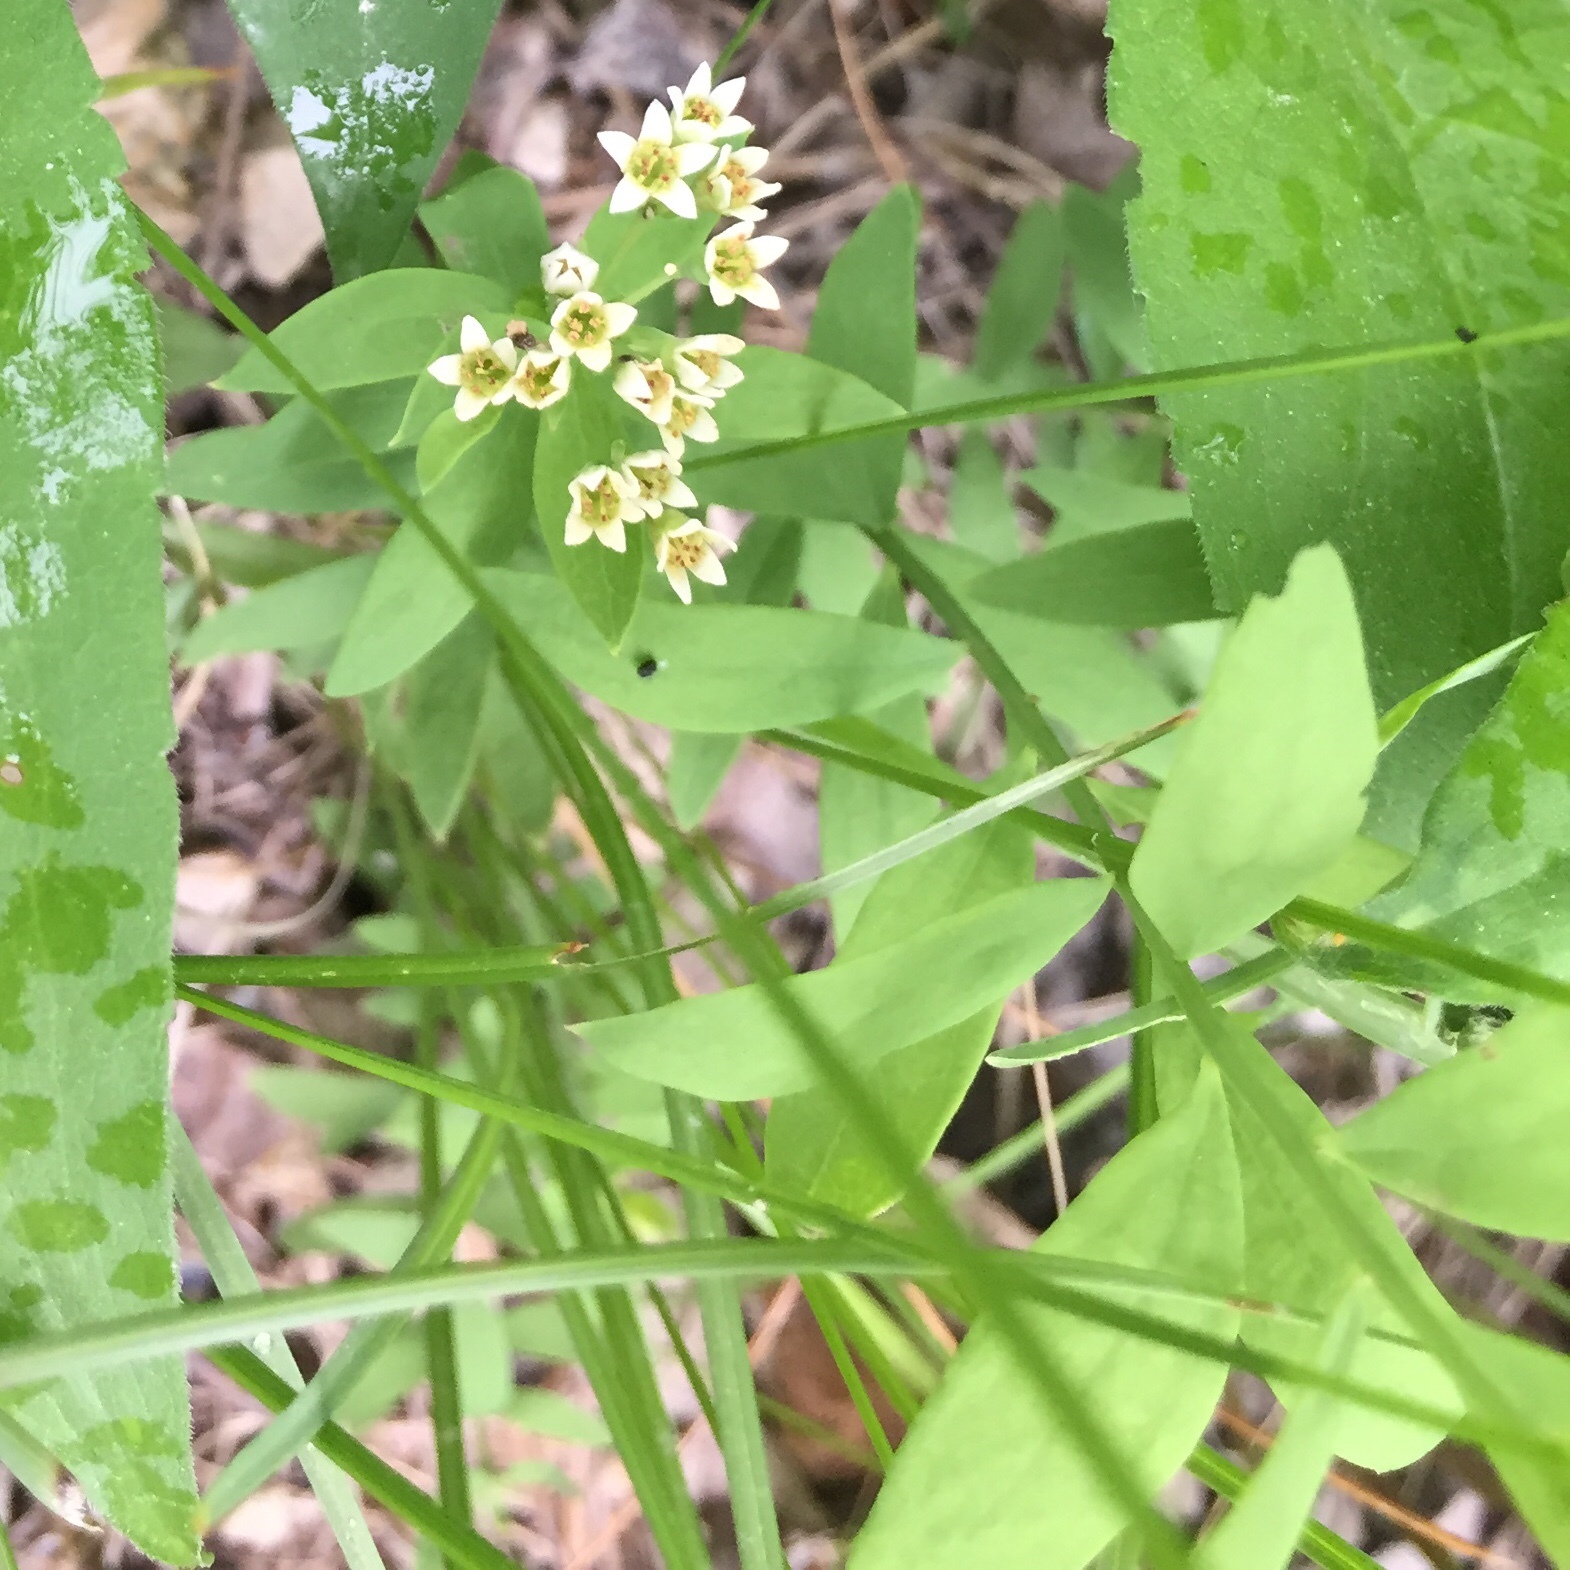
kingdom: Plantae
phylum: Tracheophyta
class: Magnoliopsida
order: Santalales
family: Comandraceae
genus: Comandra
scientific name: Comandra umbellata
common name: Bastard toadflax
